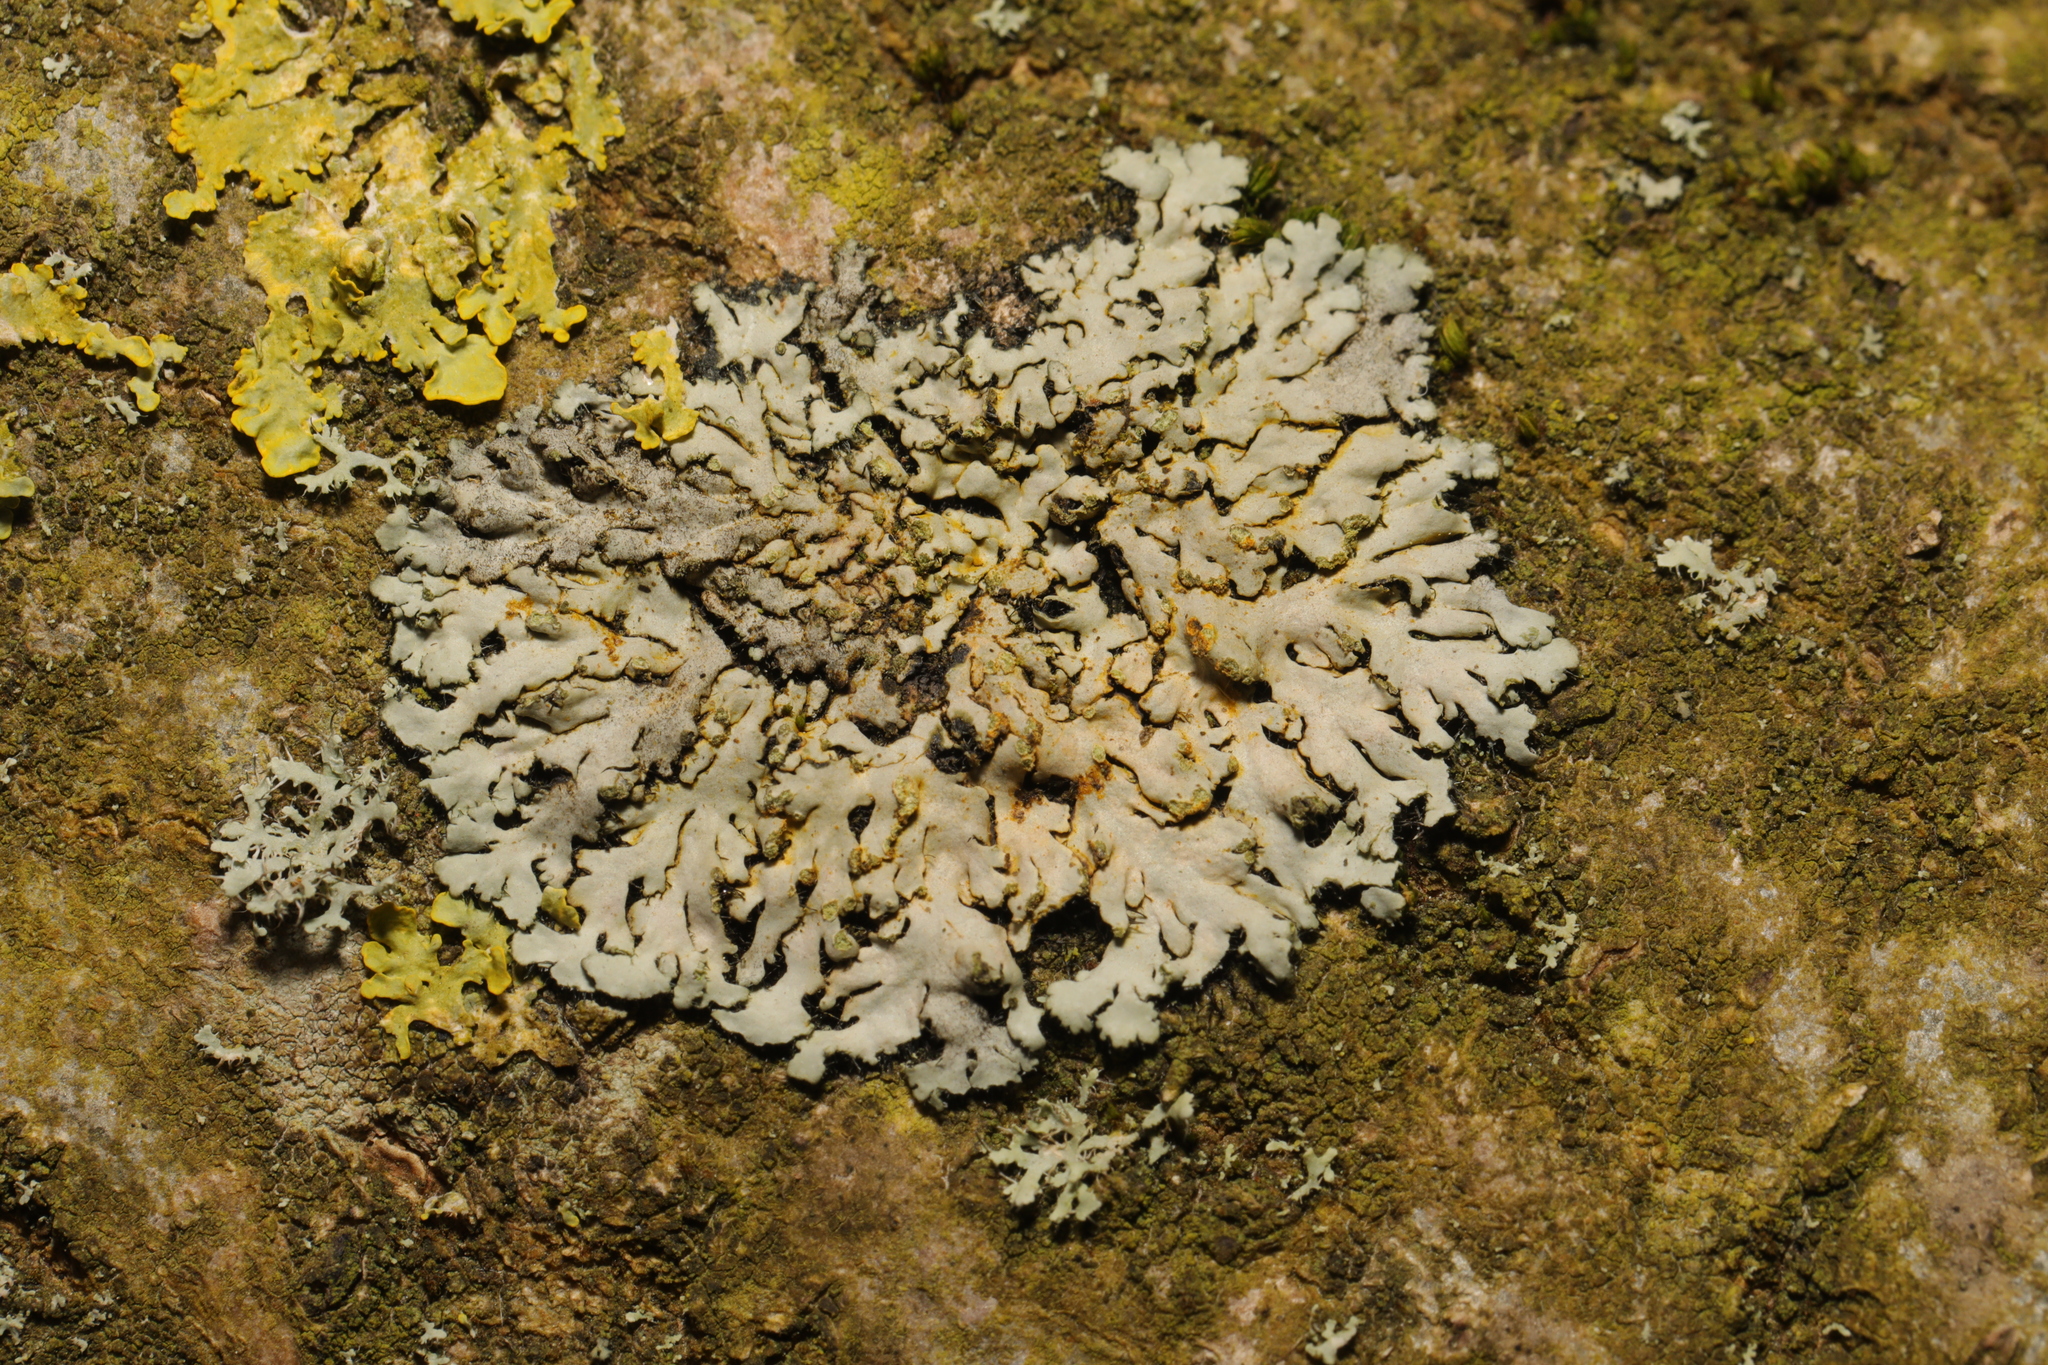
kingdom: Fungi
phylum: Ascomycota
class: Lecanoromycetes
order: Caliciales
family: Physciaceae
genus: Phaeophyscia
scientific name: Phaeophyscia orbicularis
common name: Mealy shadow lichen
